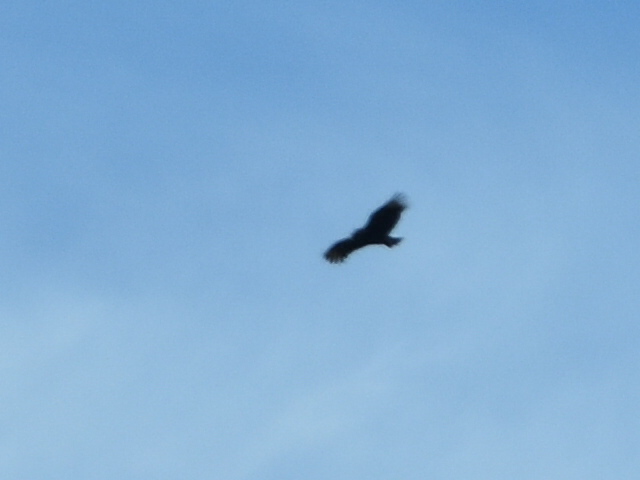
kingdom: Animalia
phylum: Chordata
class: Aves
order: Accipitriformes
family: Cathartidae
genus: Coragyps
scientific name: Coragyps atratus
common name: Black vulture
